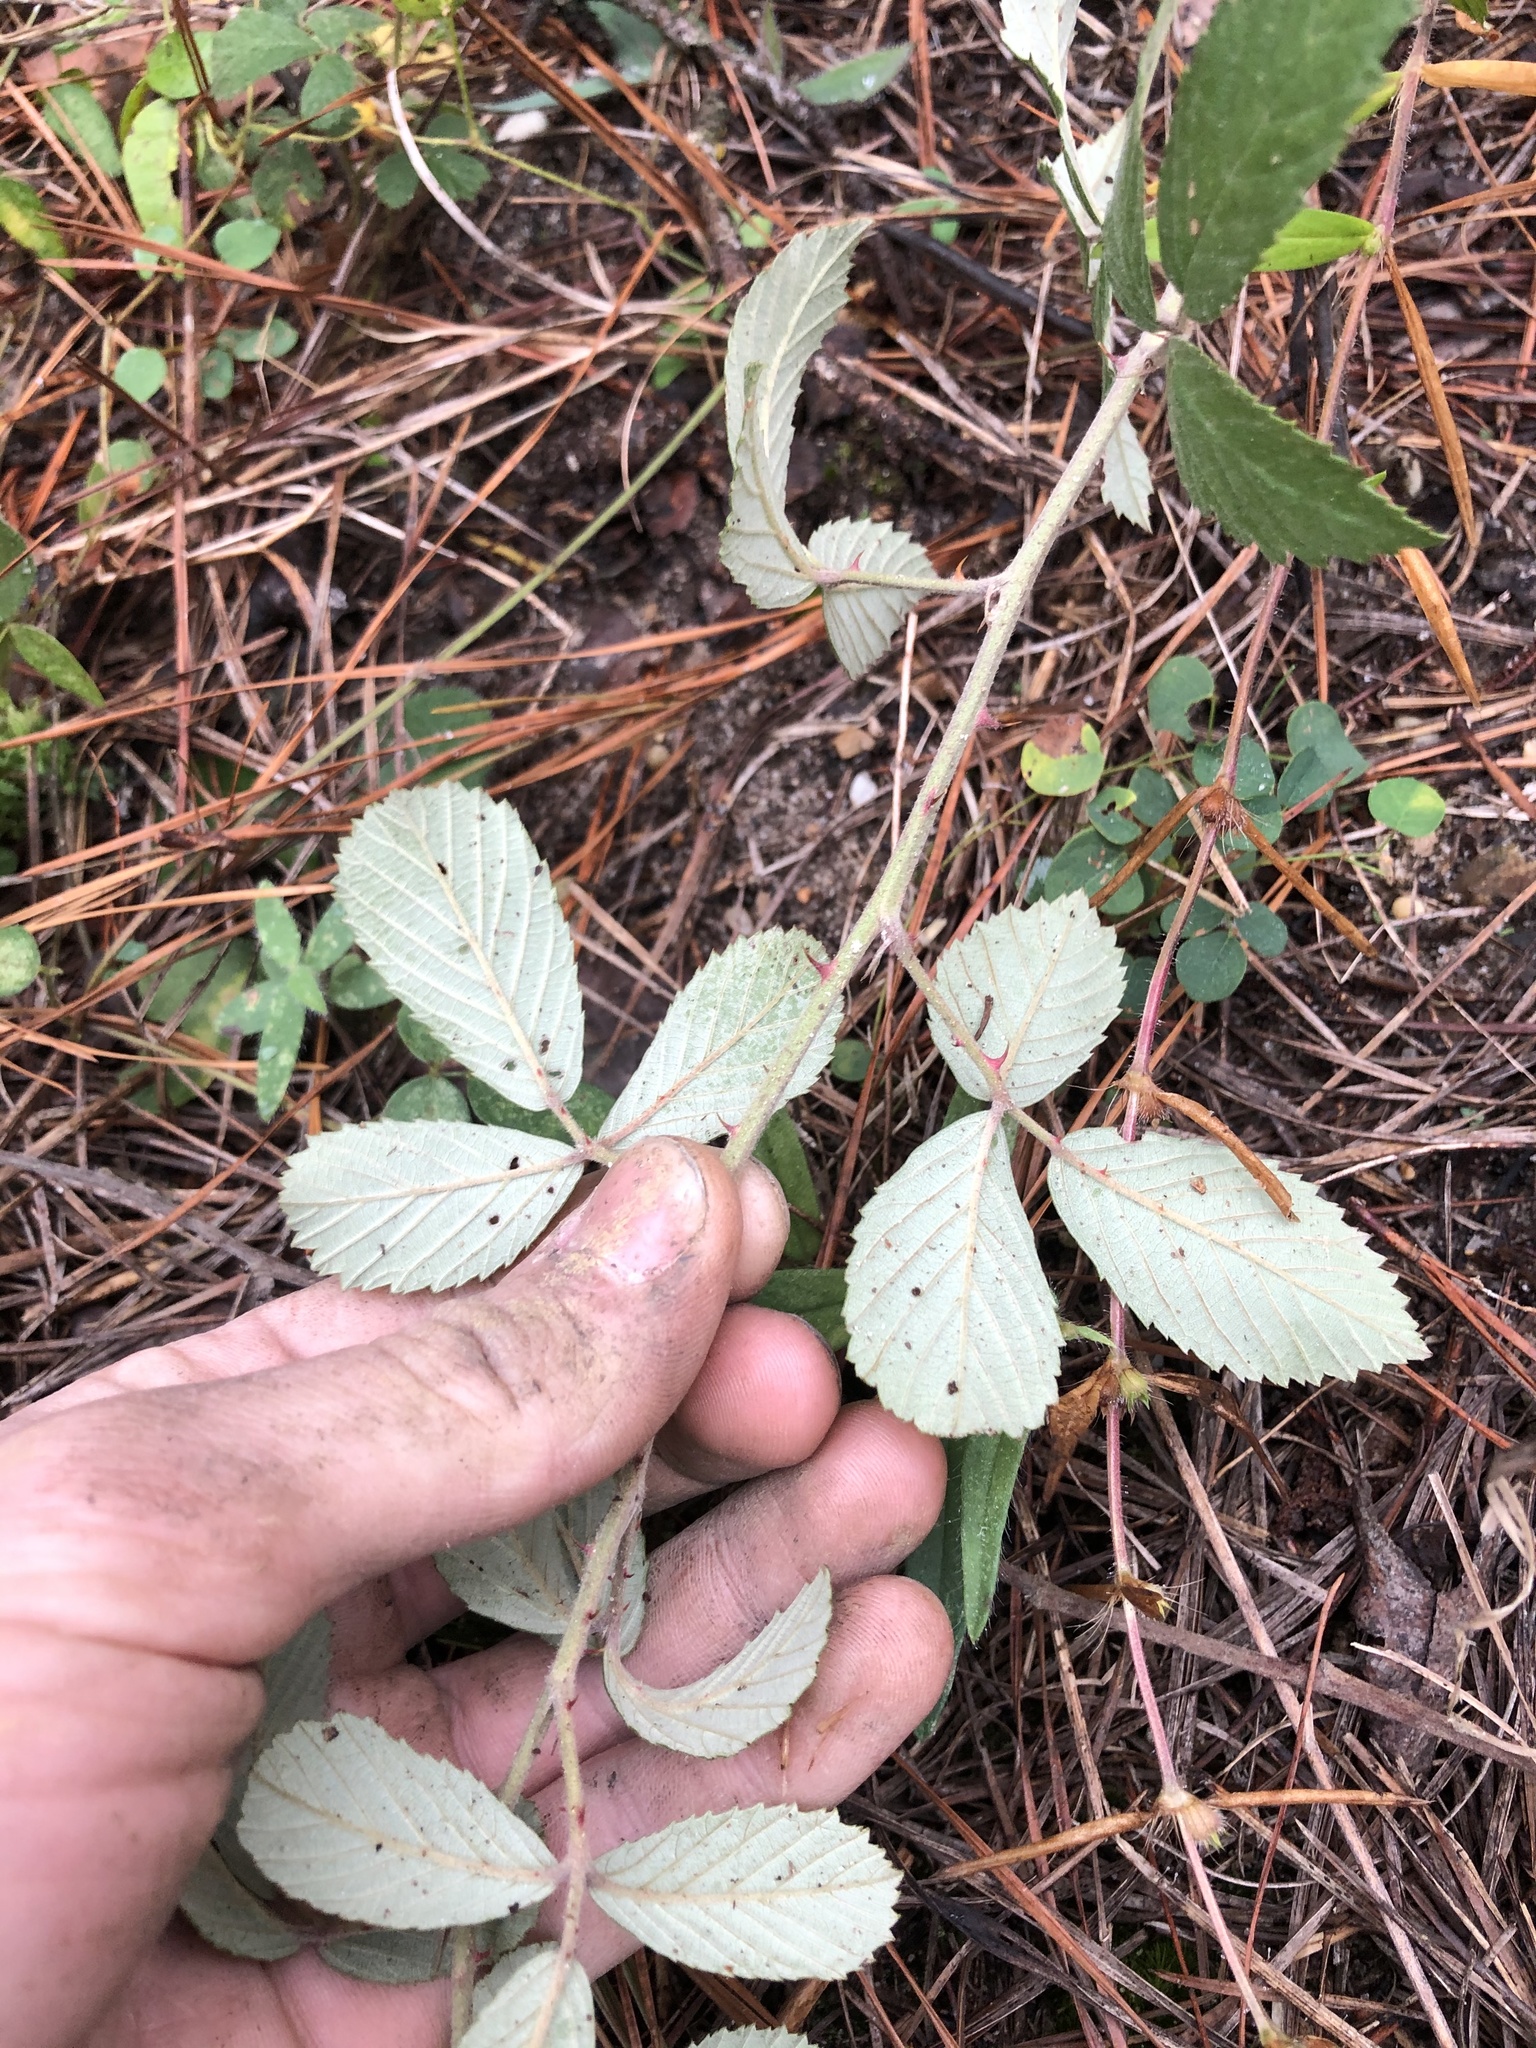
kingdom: Plantae
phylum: Tracheophyta
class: Magnoliopsida
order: Rosales
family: Rosaceae
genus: Rubus
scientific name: Rubus cuneifolius
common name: American bramble
